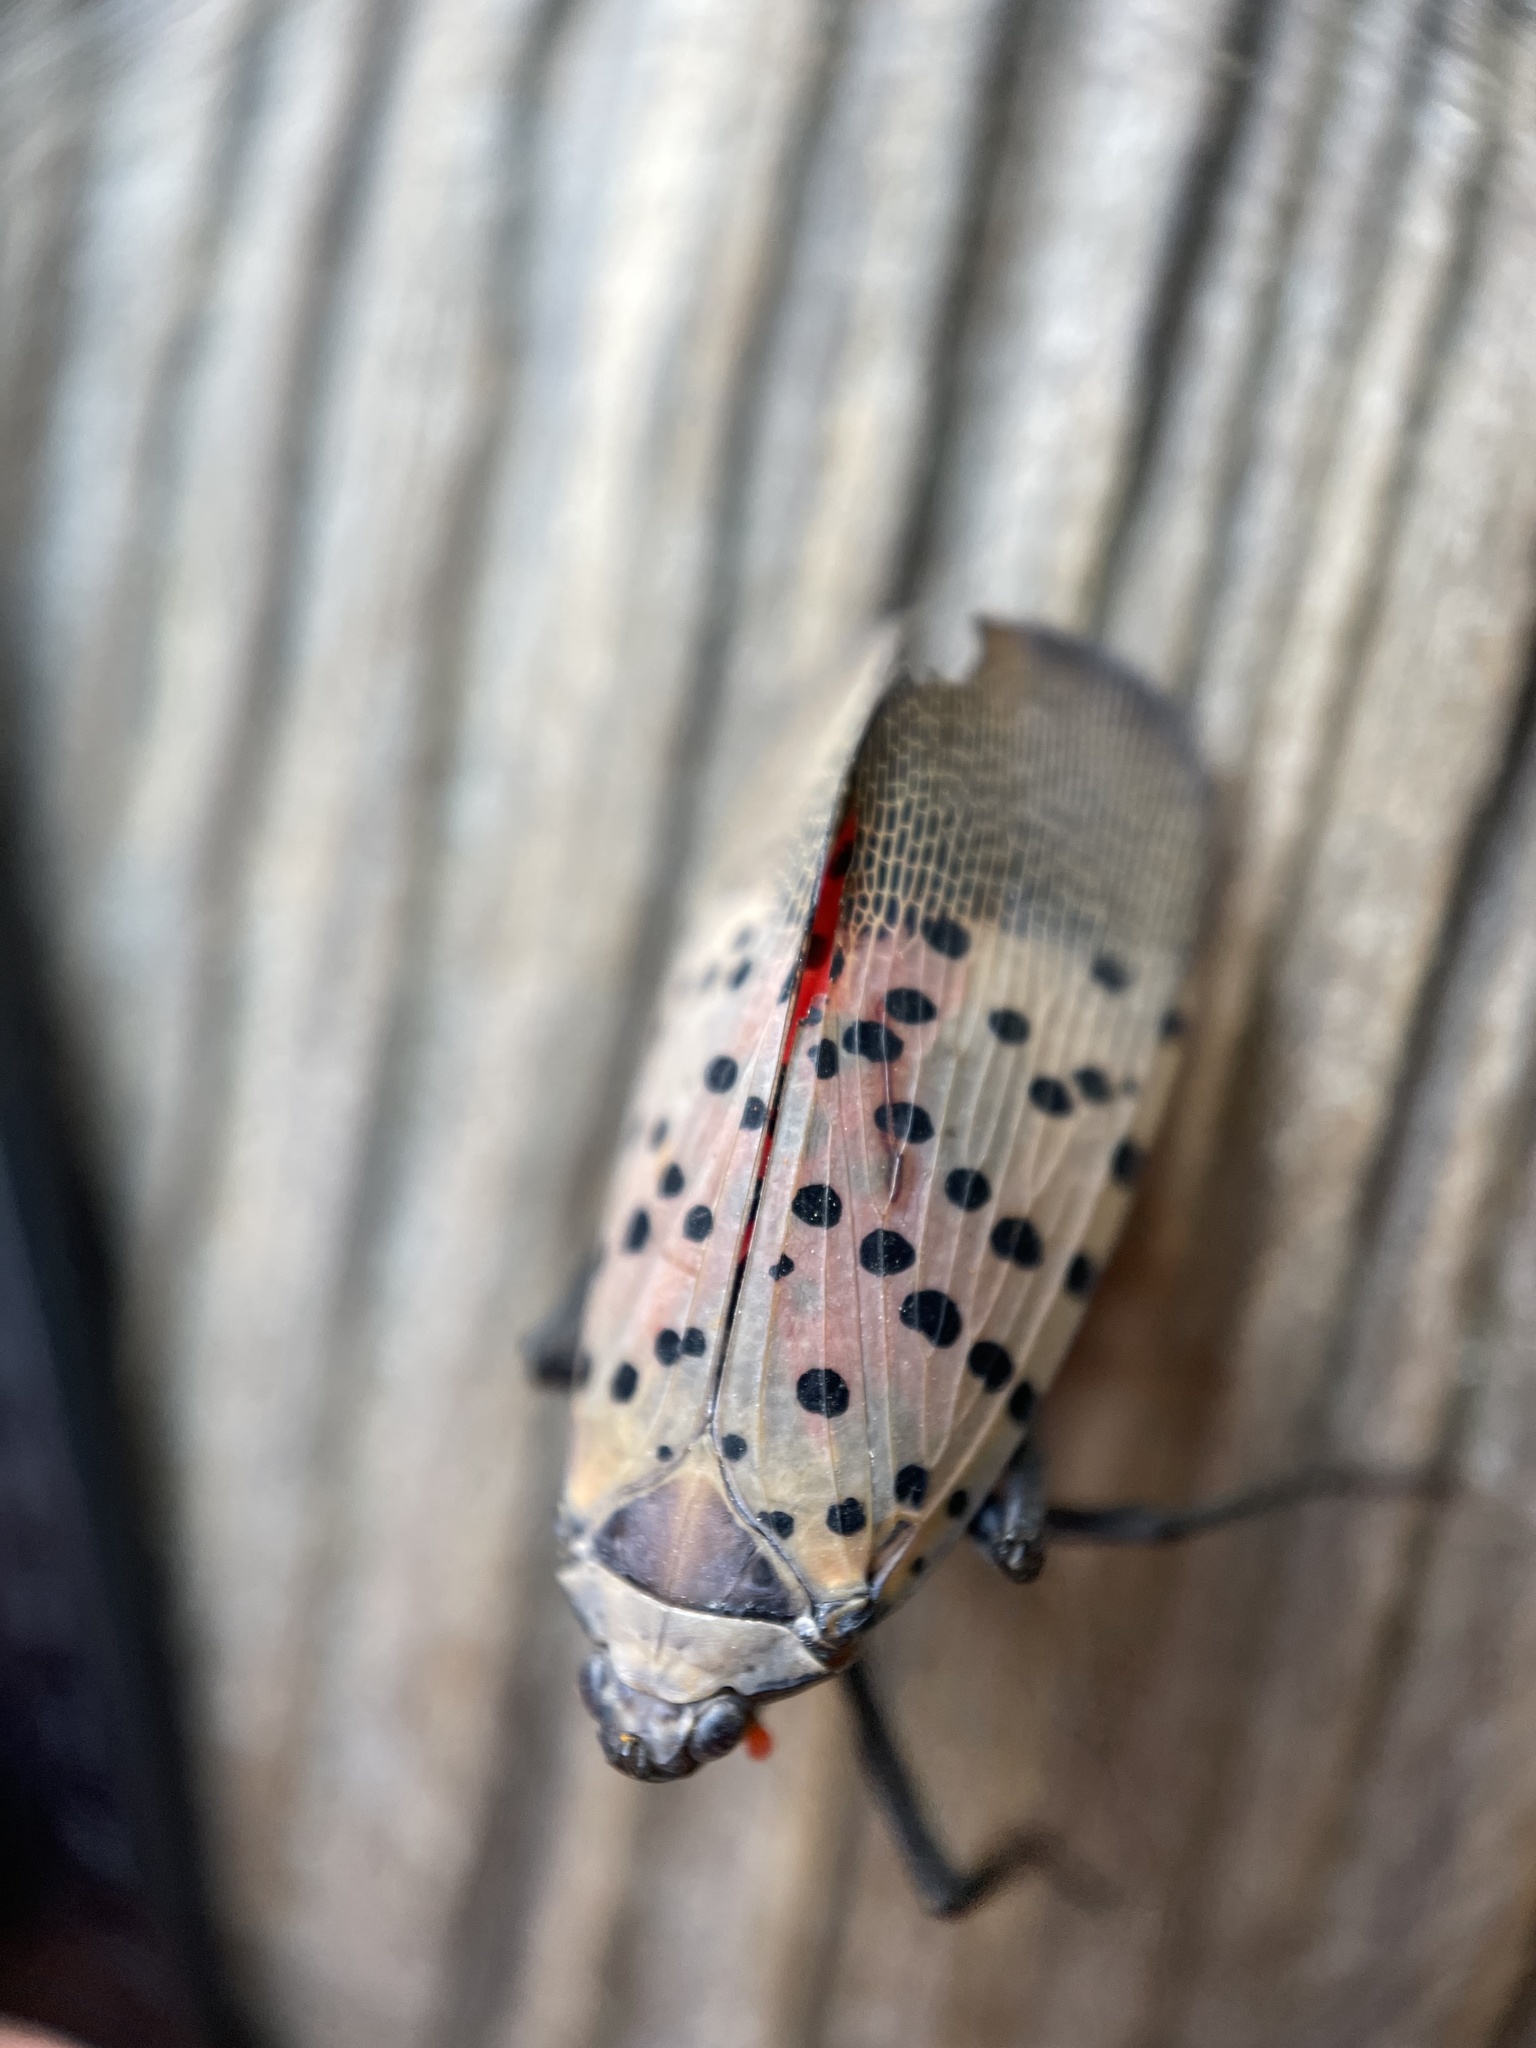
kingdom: Animalia
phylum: Arthropoda
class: Insecta
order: Hemiptera
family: Fulgoridae
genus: Lycorma
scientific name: Lycorma delicatula
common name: Spotted lanternfly
